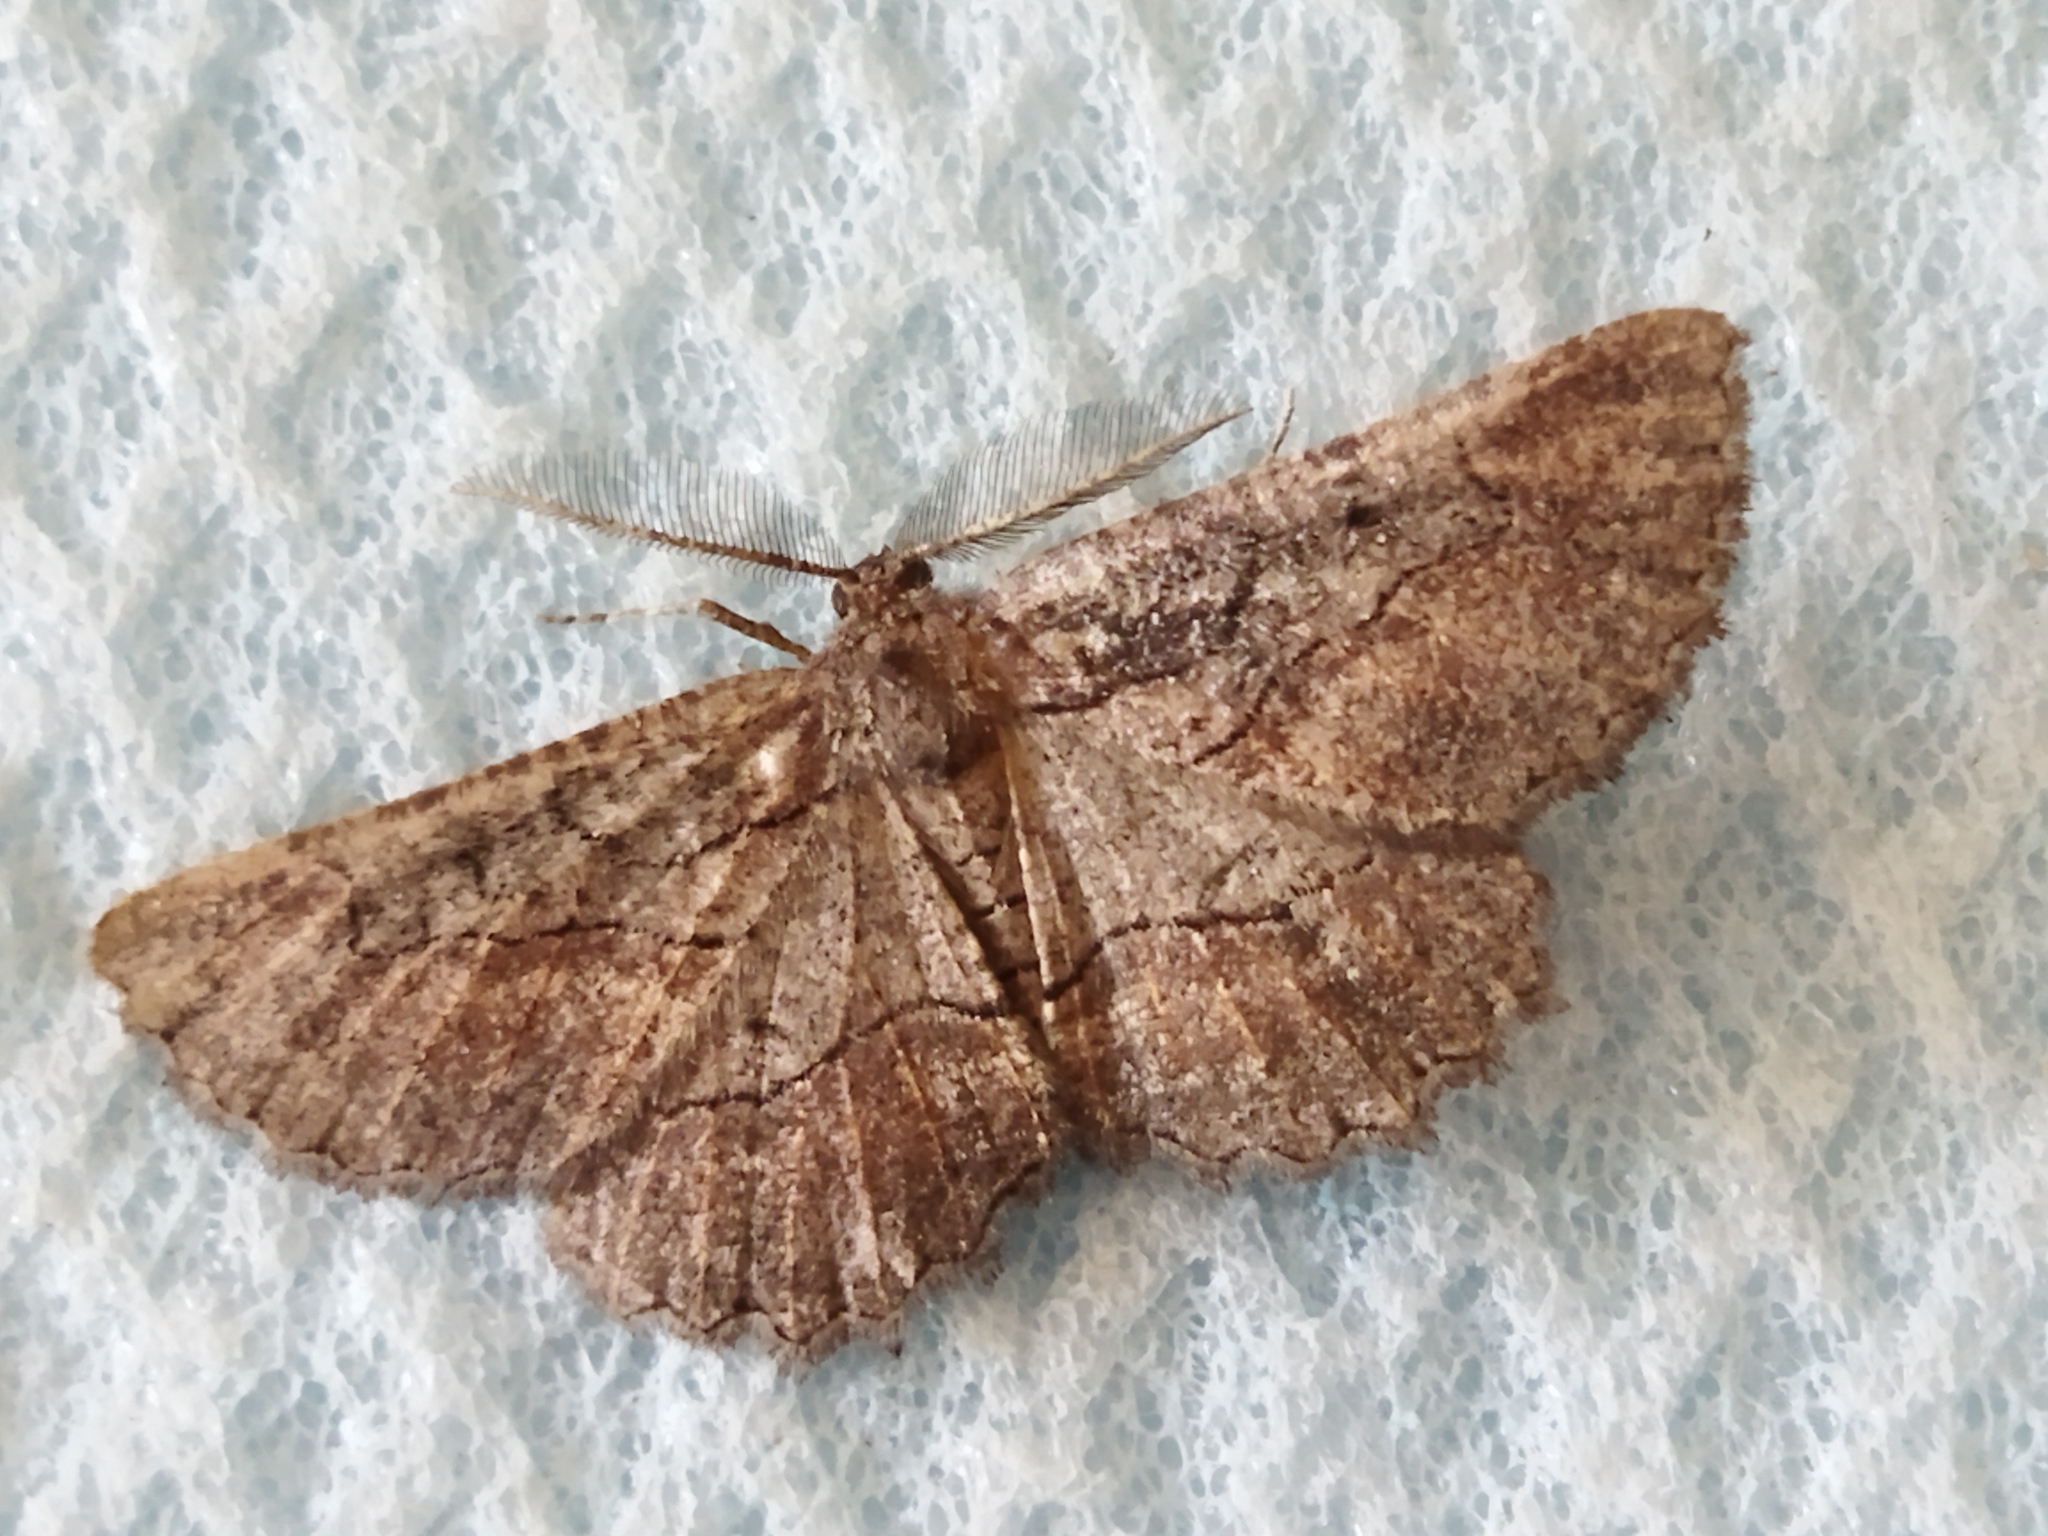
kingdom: Animalia
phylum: Arthropoda
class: Insecta
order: Lepidoptera
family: Geometridae
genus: Nychiodes
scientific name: Nychiodes waltheri
